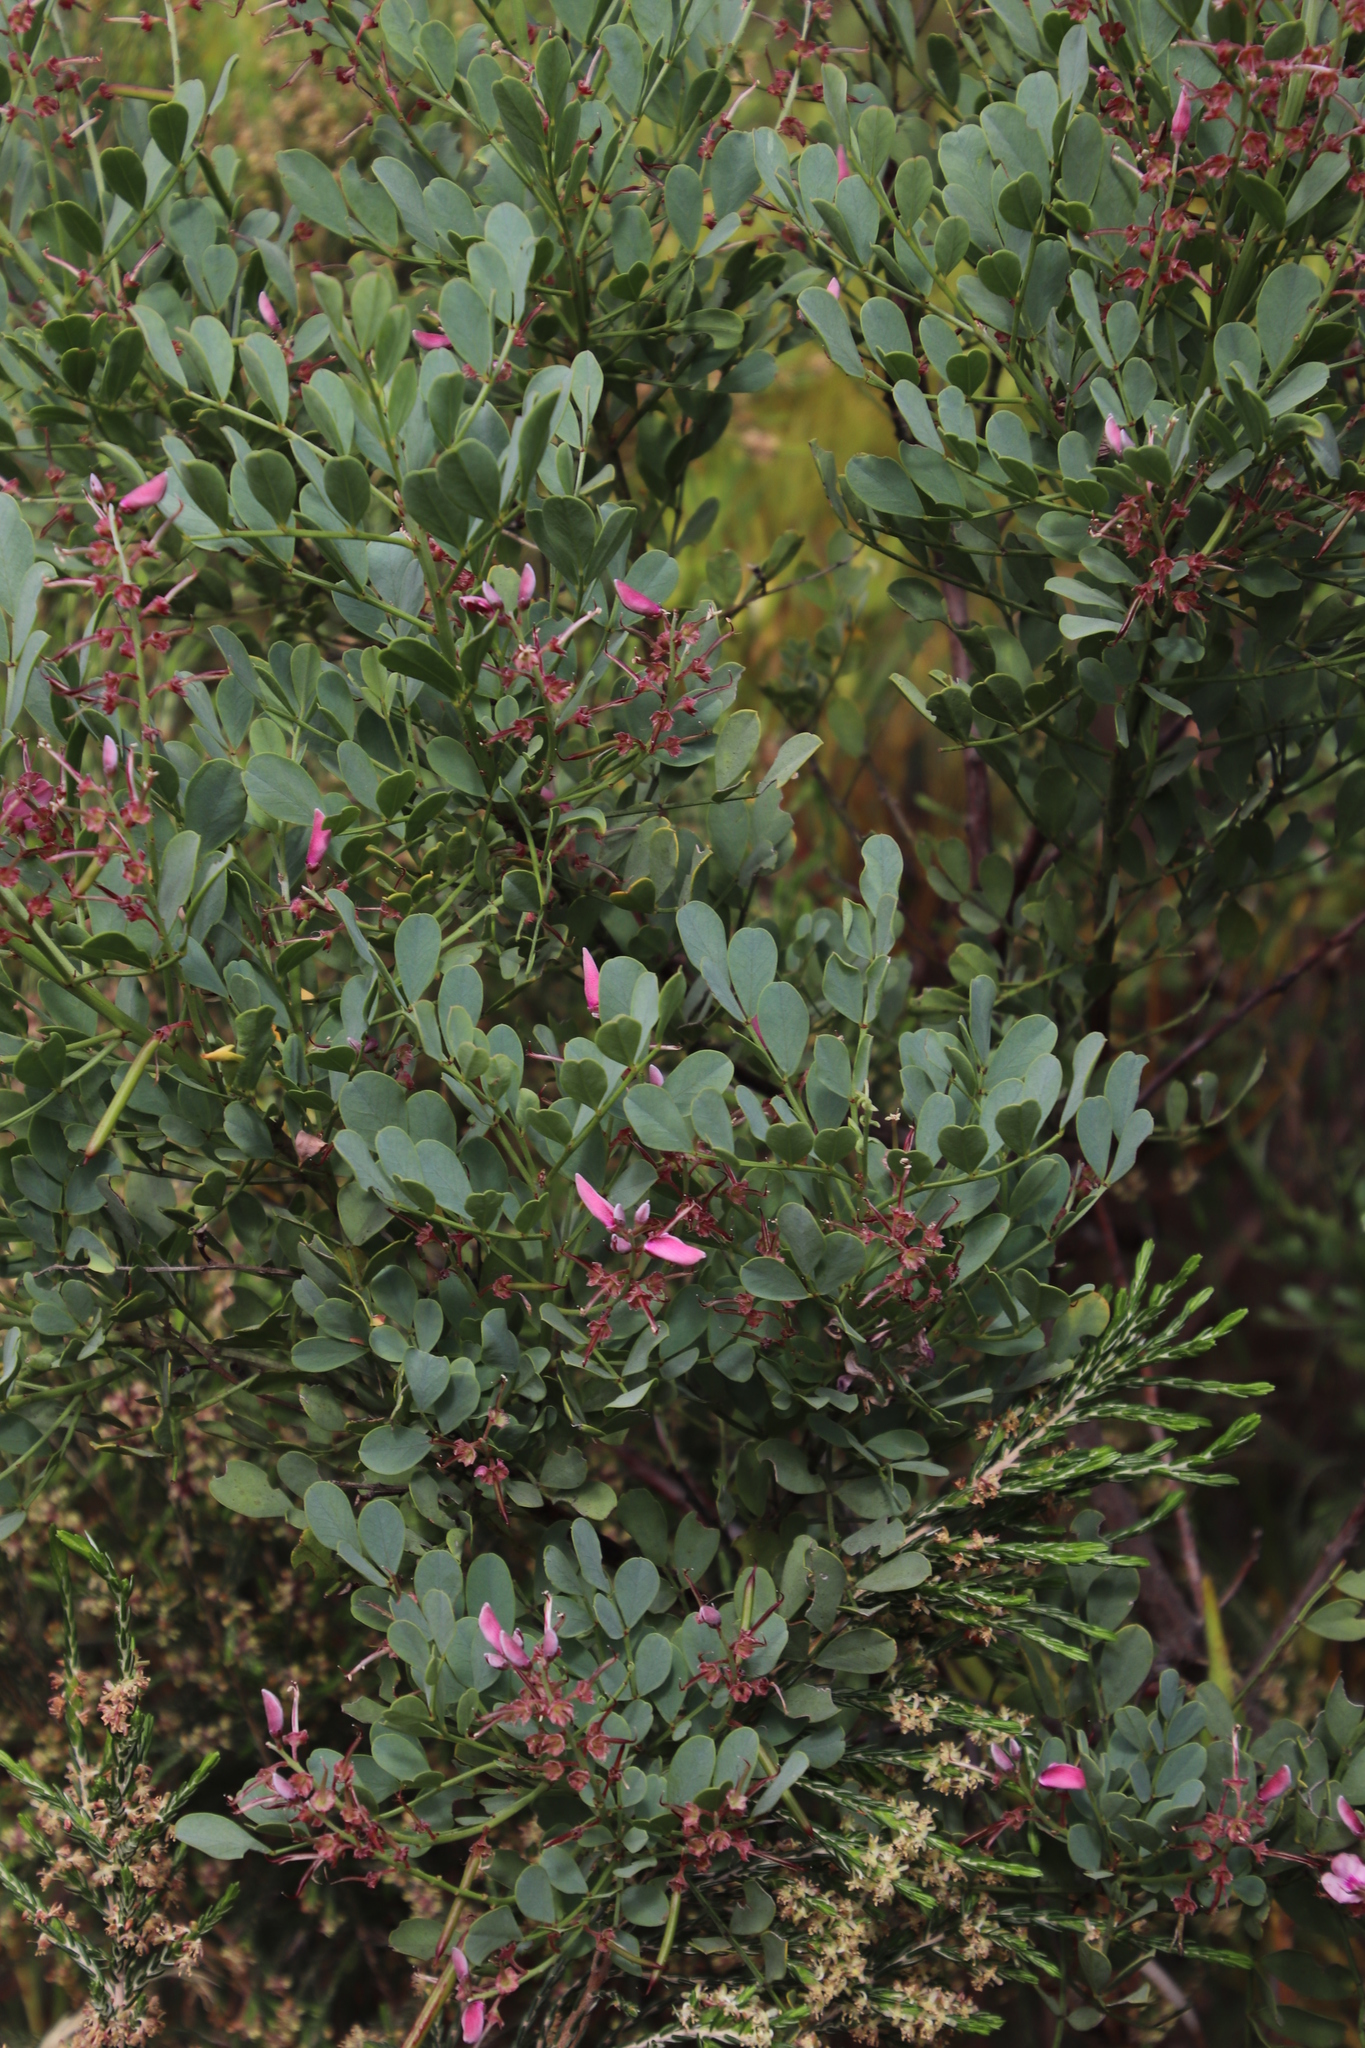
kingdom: Plantae
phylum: Tracheophyta
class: Magnoliopsida
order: Fabales
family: Fabaceae
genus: Indigofera
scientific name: Indigofera frutescens
